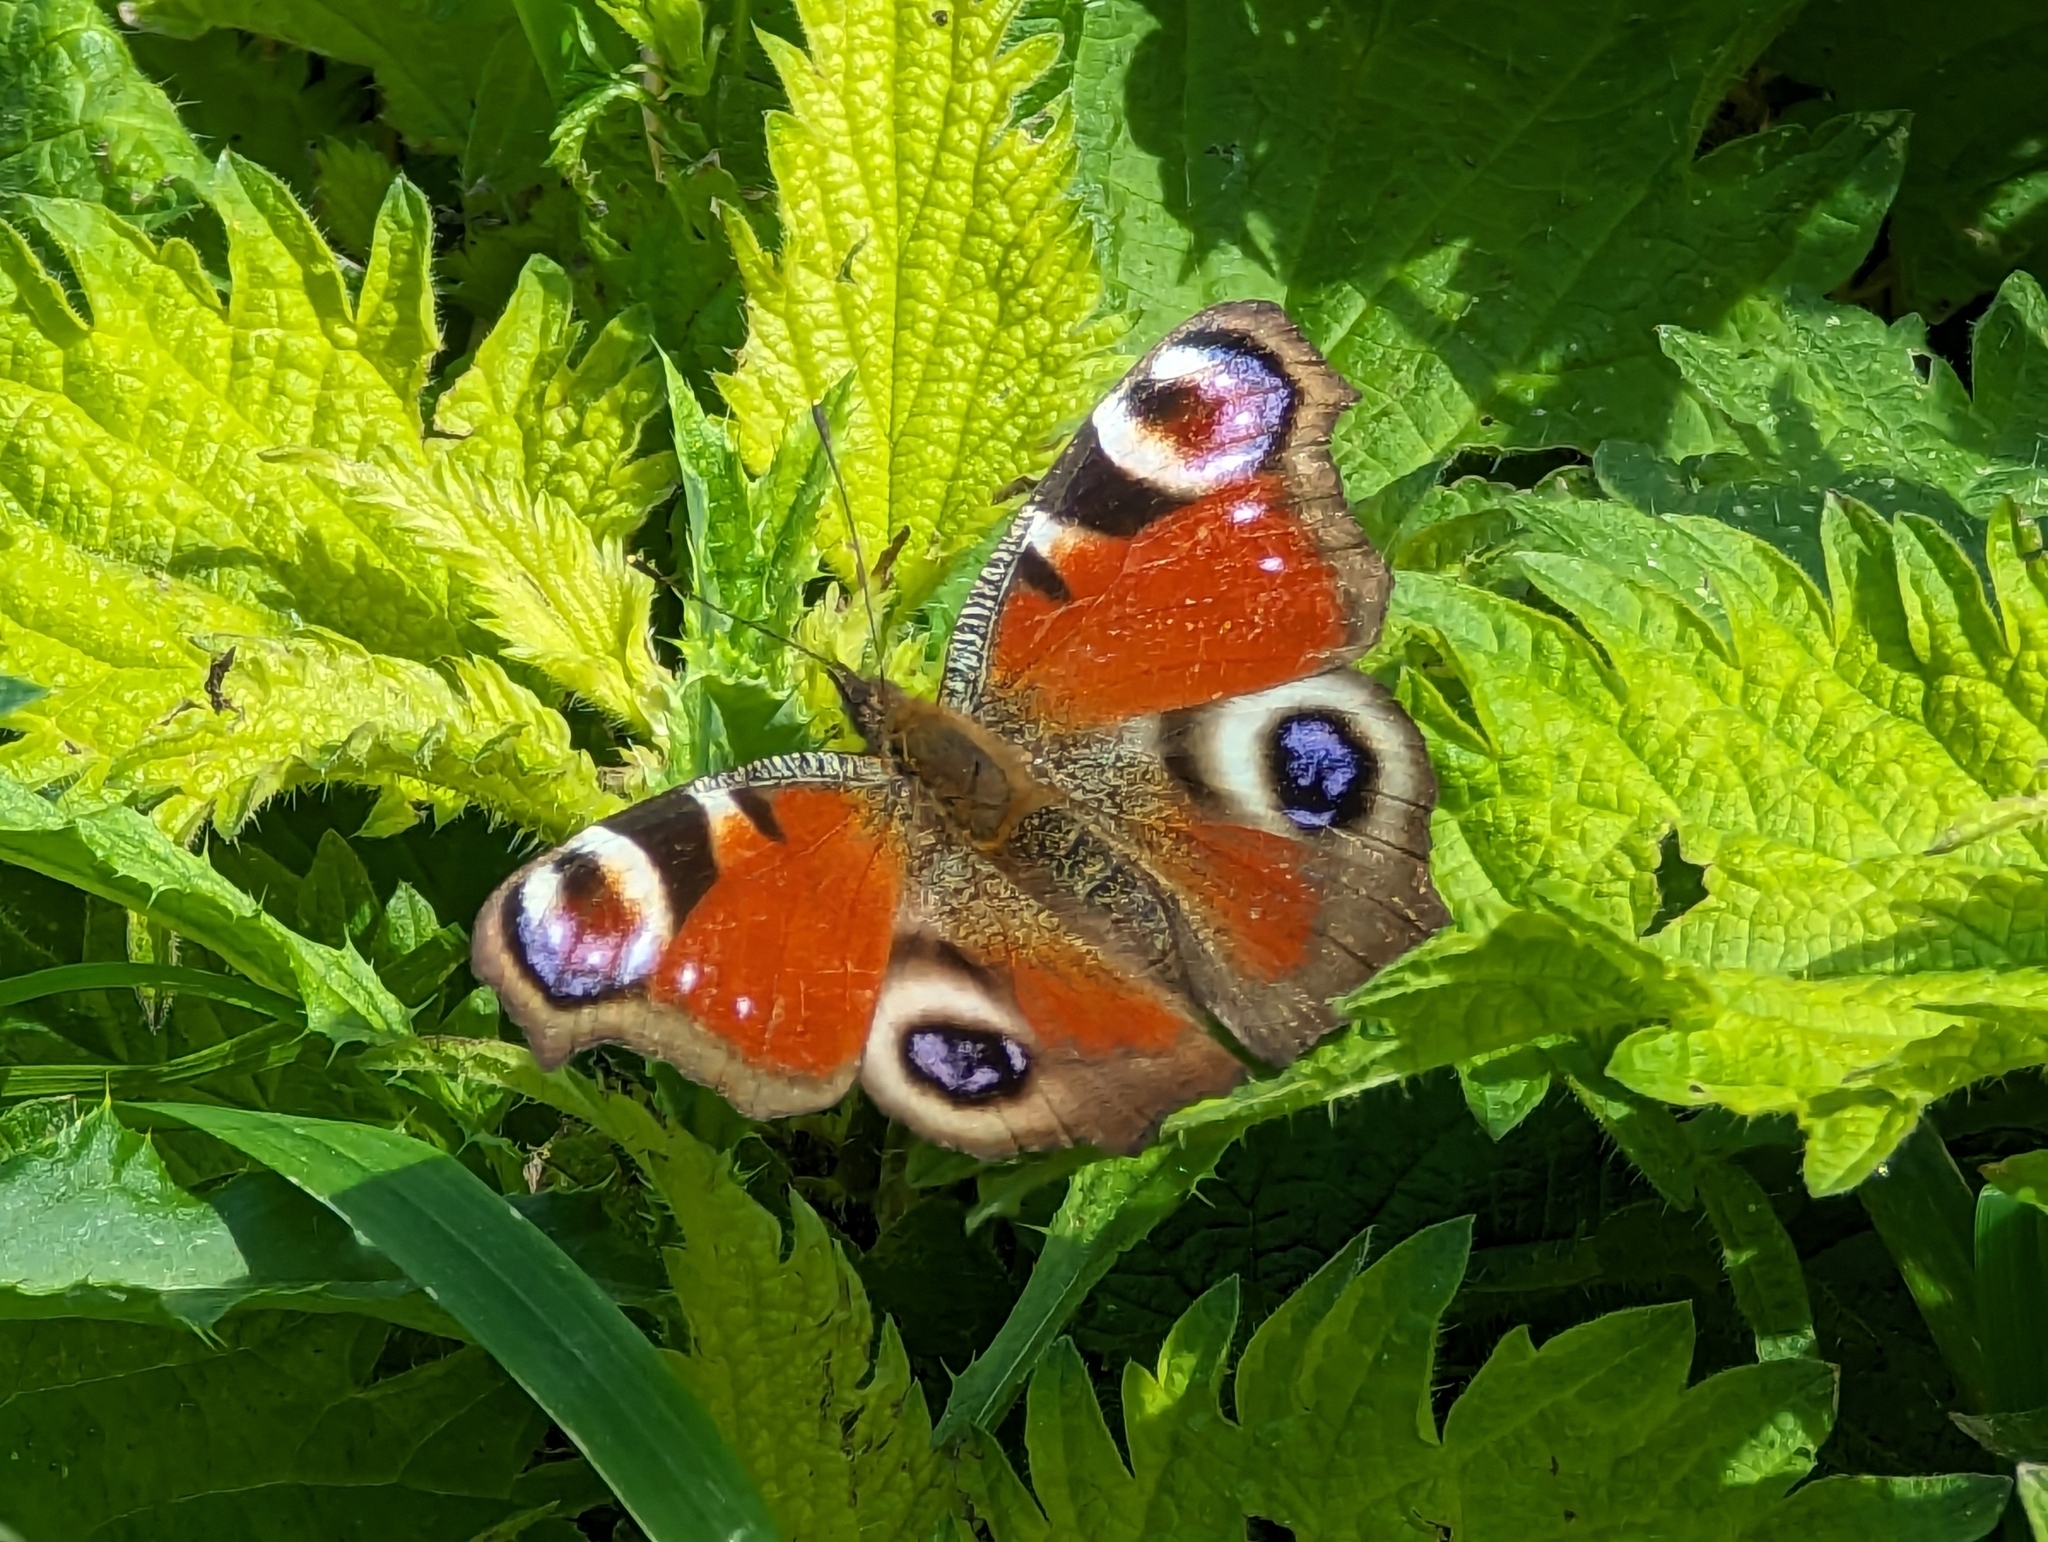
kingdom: Animalia
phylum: Arthropoda
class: Insecta
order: Lepidoptera
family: Nymphalidae
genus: Aglais
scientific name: Aglais io
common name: Peacock
